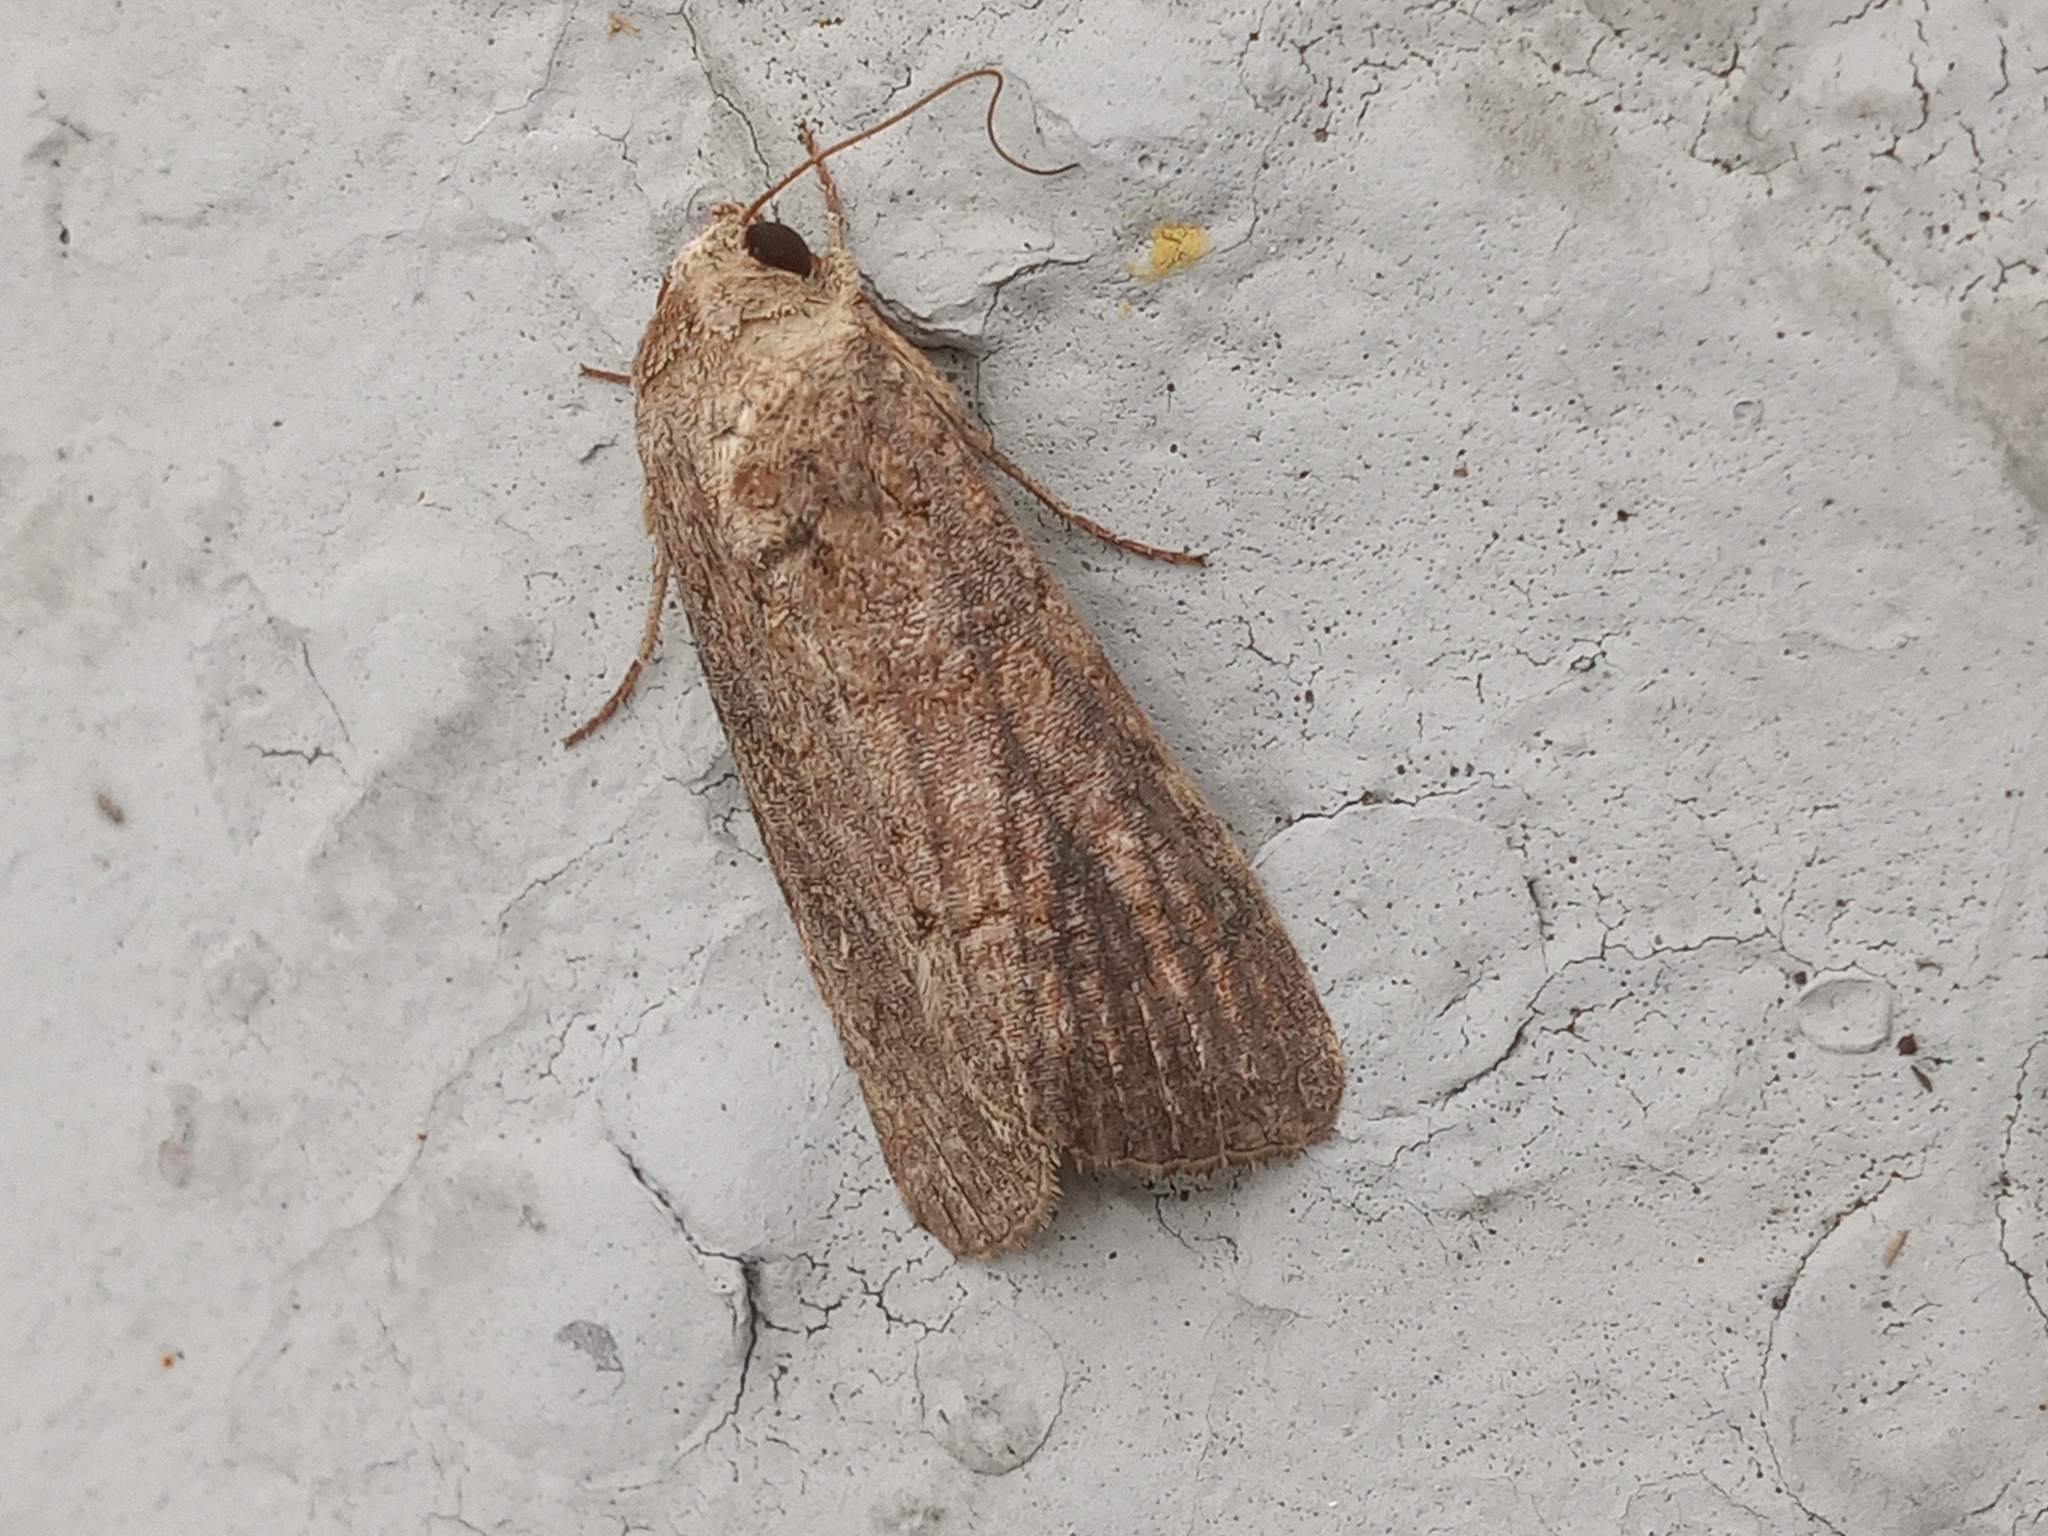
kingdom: Animalia
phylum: Arthropoda
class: Insecta
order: Lepidoptera
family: Noctuidae
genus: Spodoptera
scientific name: Spodoptera frugiperda
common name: Fall armyworm
